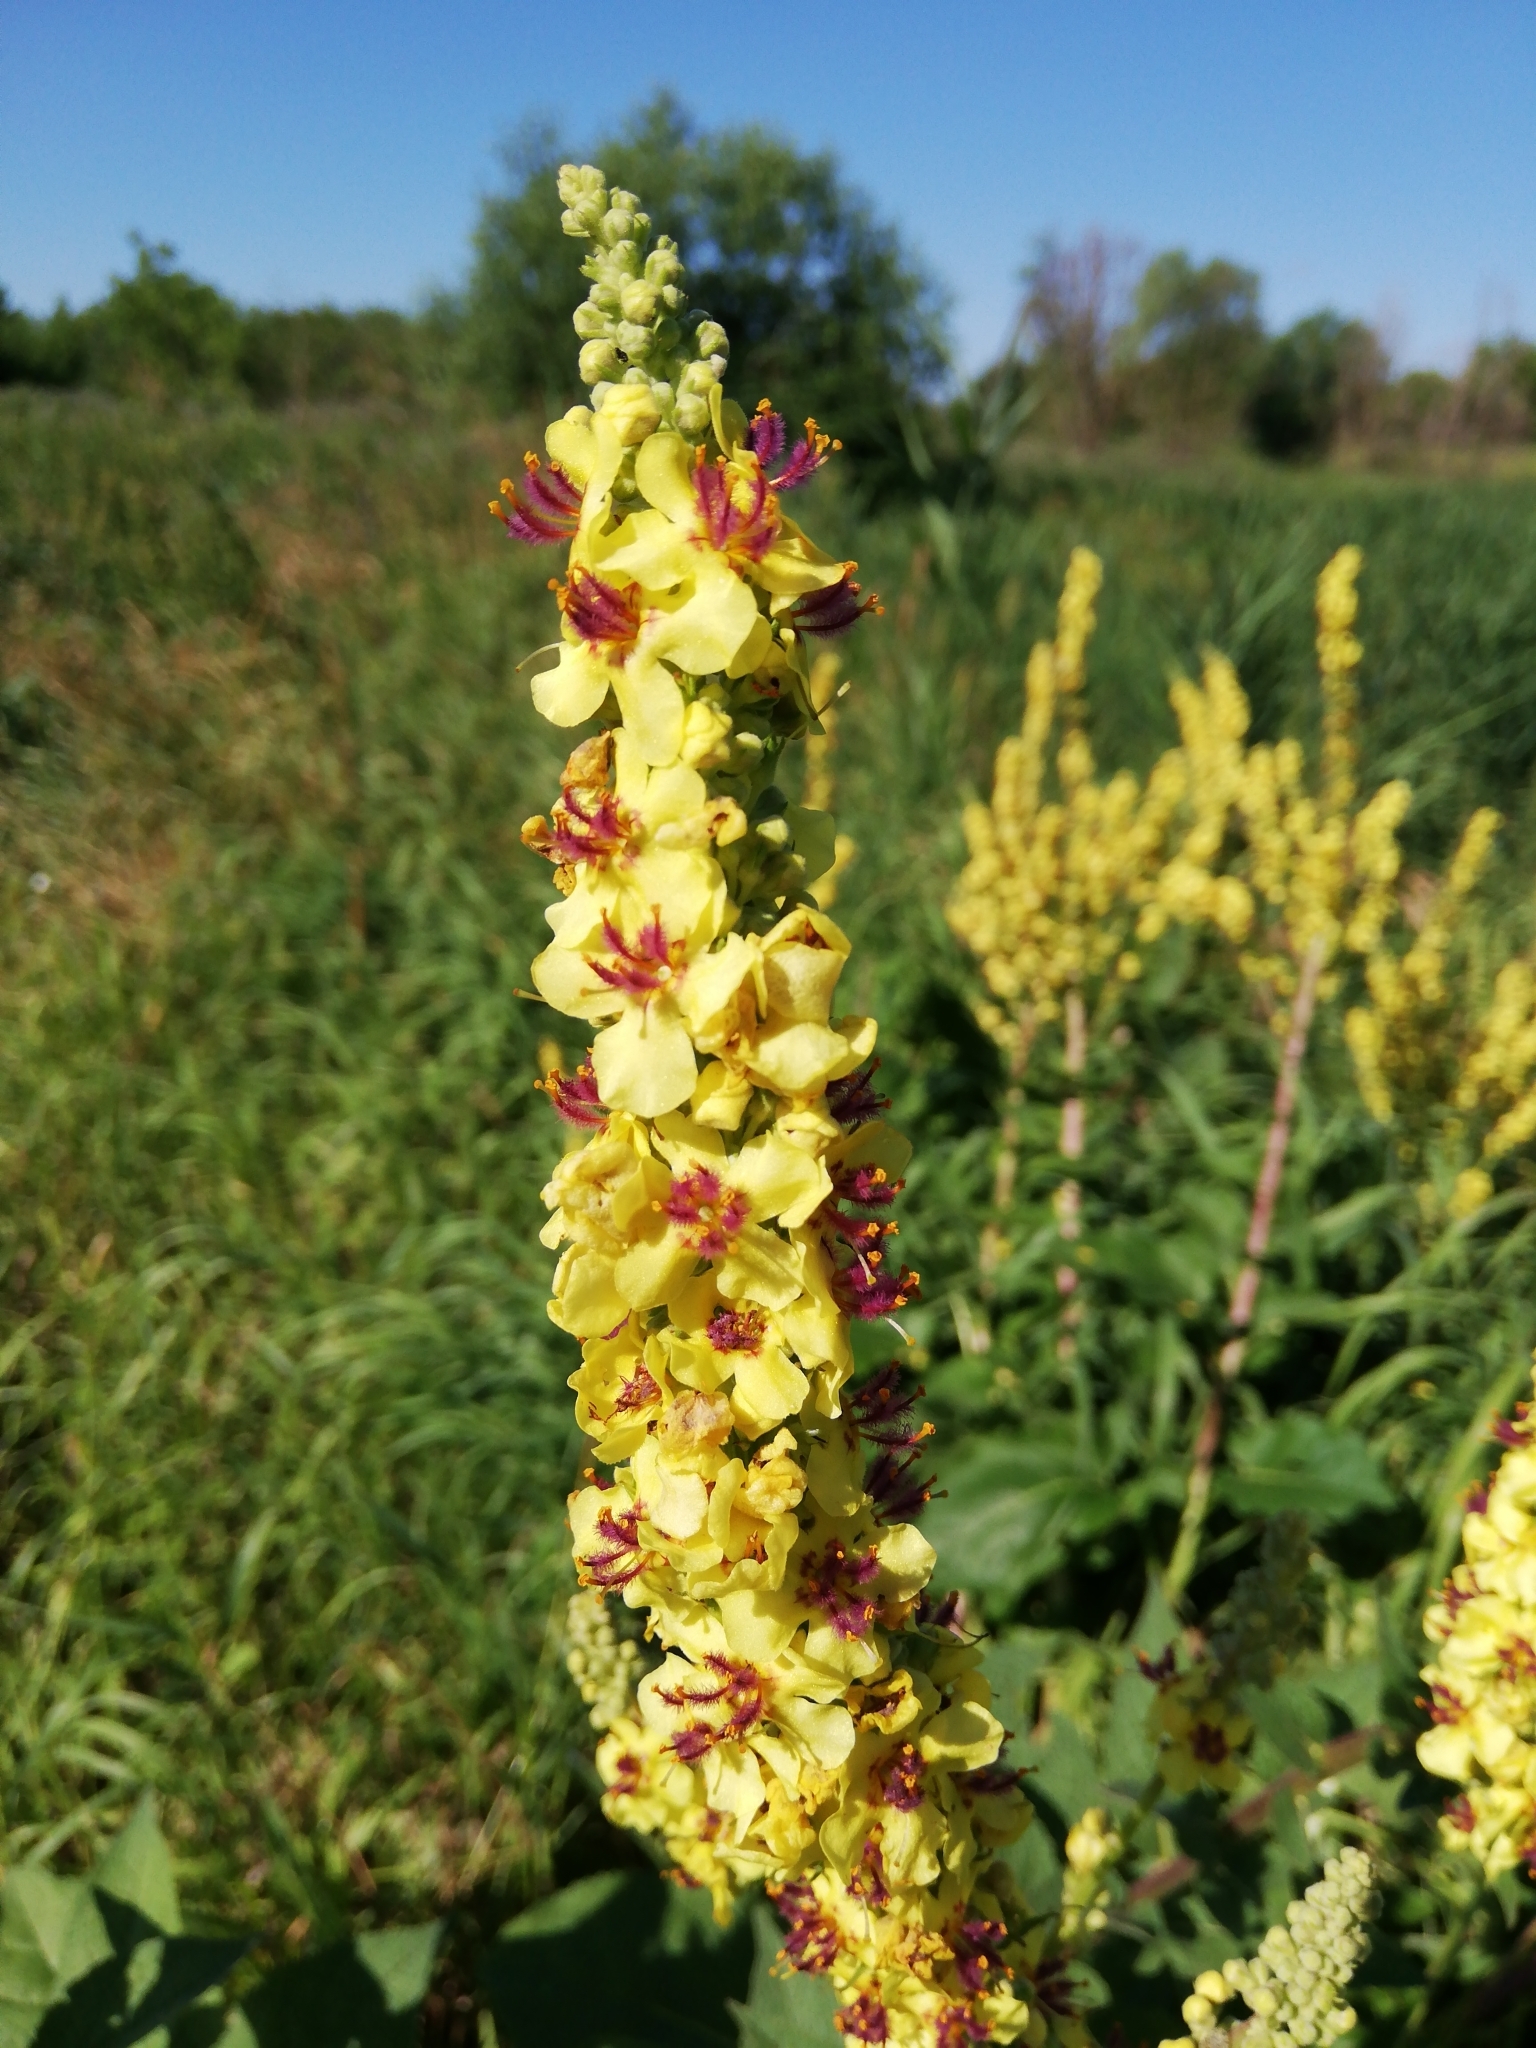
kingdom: Plantae
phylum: Tracheophyta
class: Magnoliopsida
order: Lamiales
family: Scrophulariaceae
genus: Verbascum
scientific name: Verbascum nigrum
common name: Dark mullein
